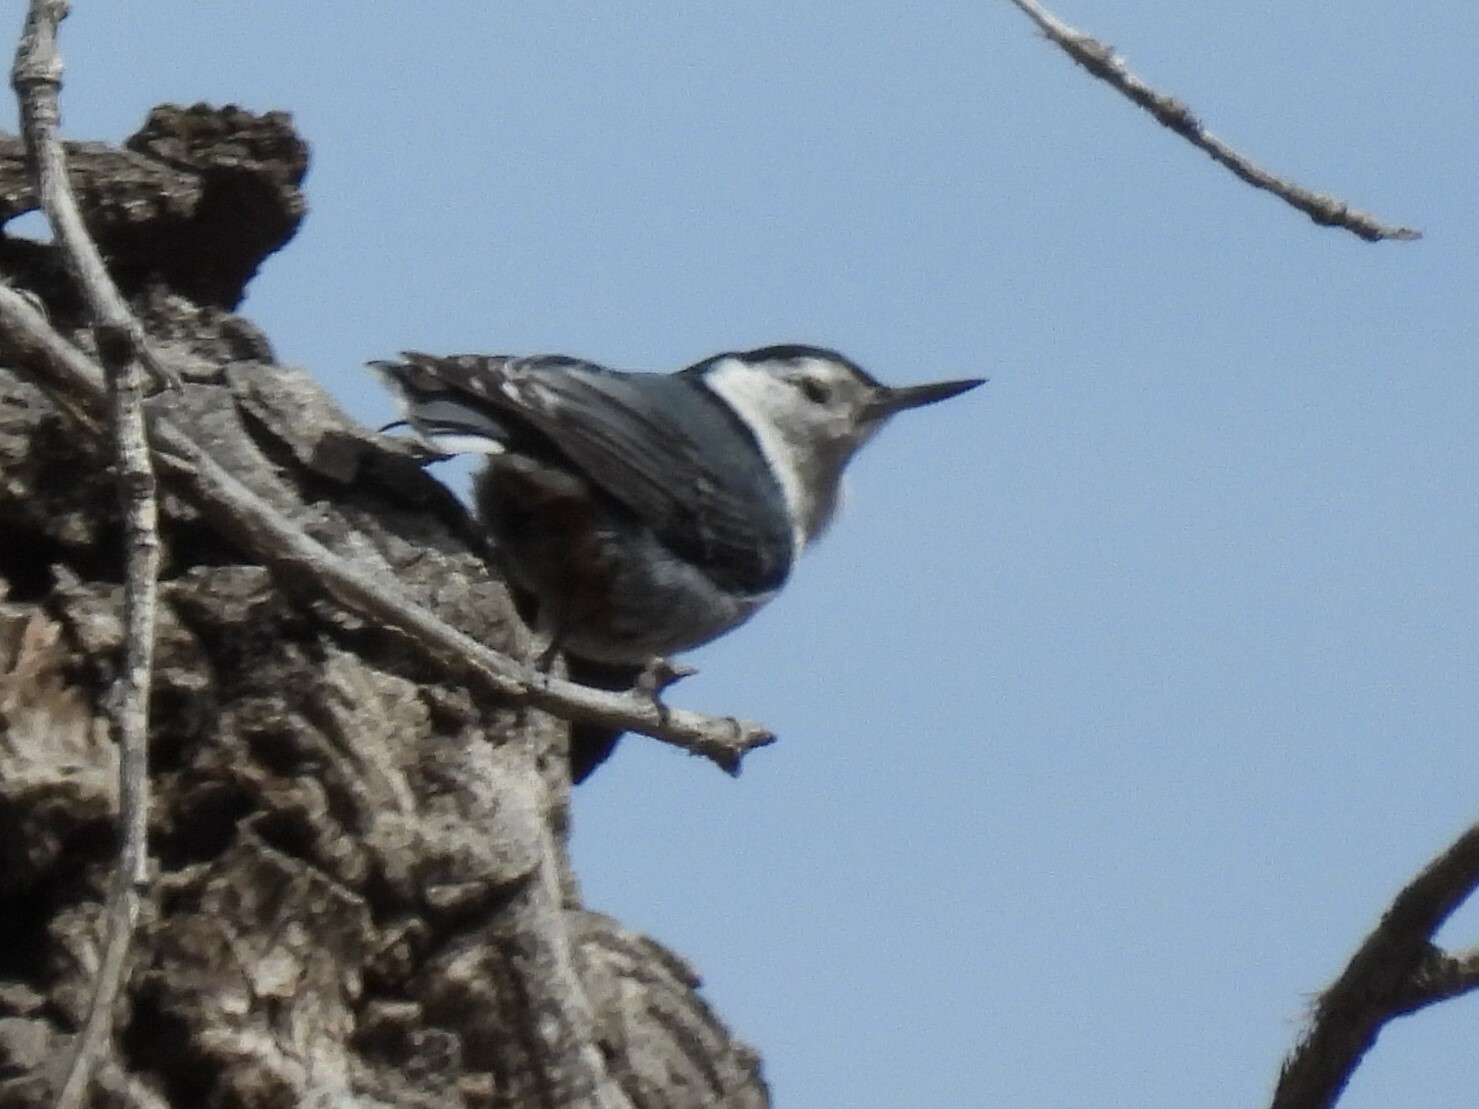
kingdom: Animalia
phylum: Chordata
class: Aves
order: Passeriformes
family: Sittidae
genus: Sitta
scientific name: Sitta carolinensis
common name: White-breasted nuthatch
